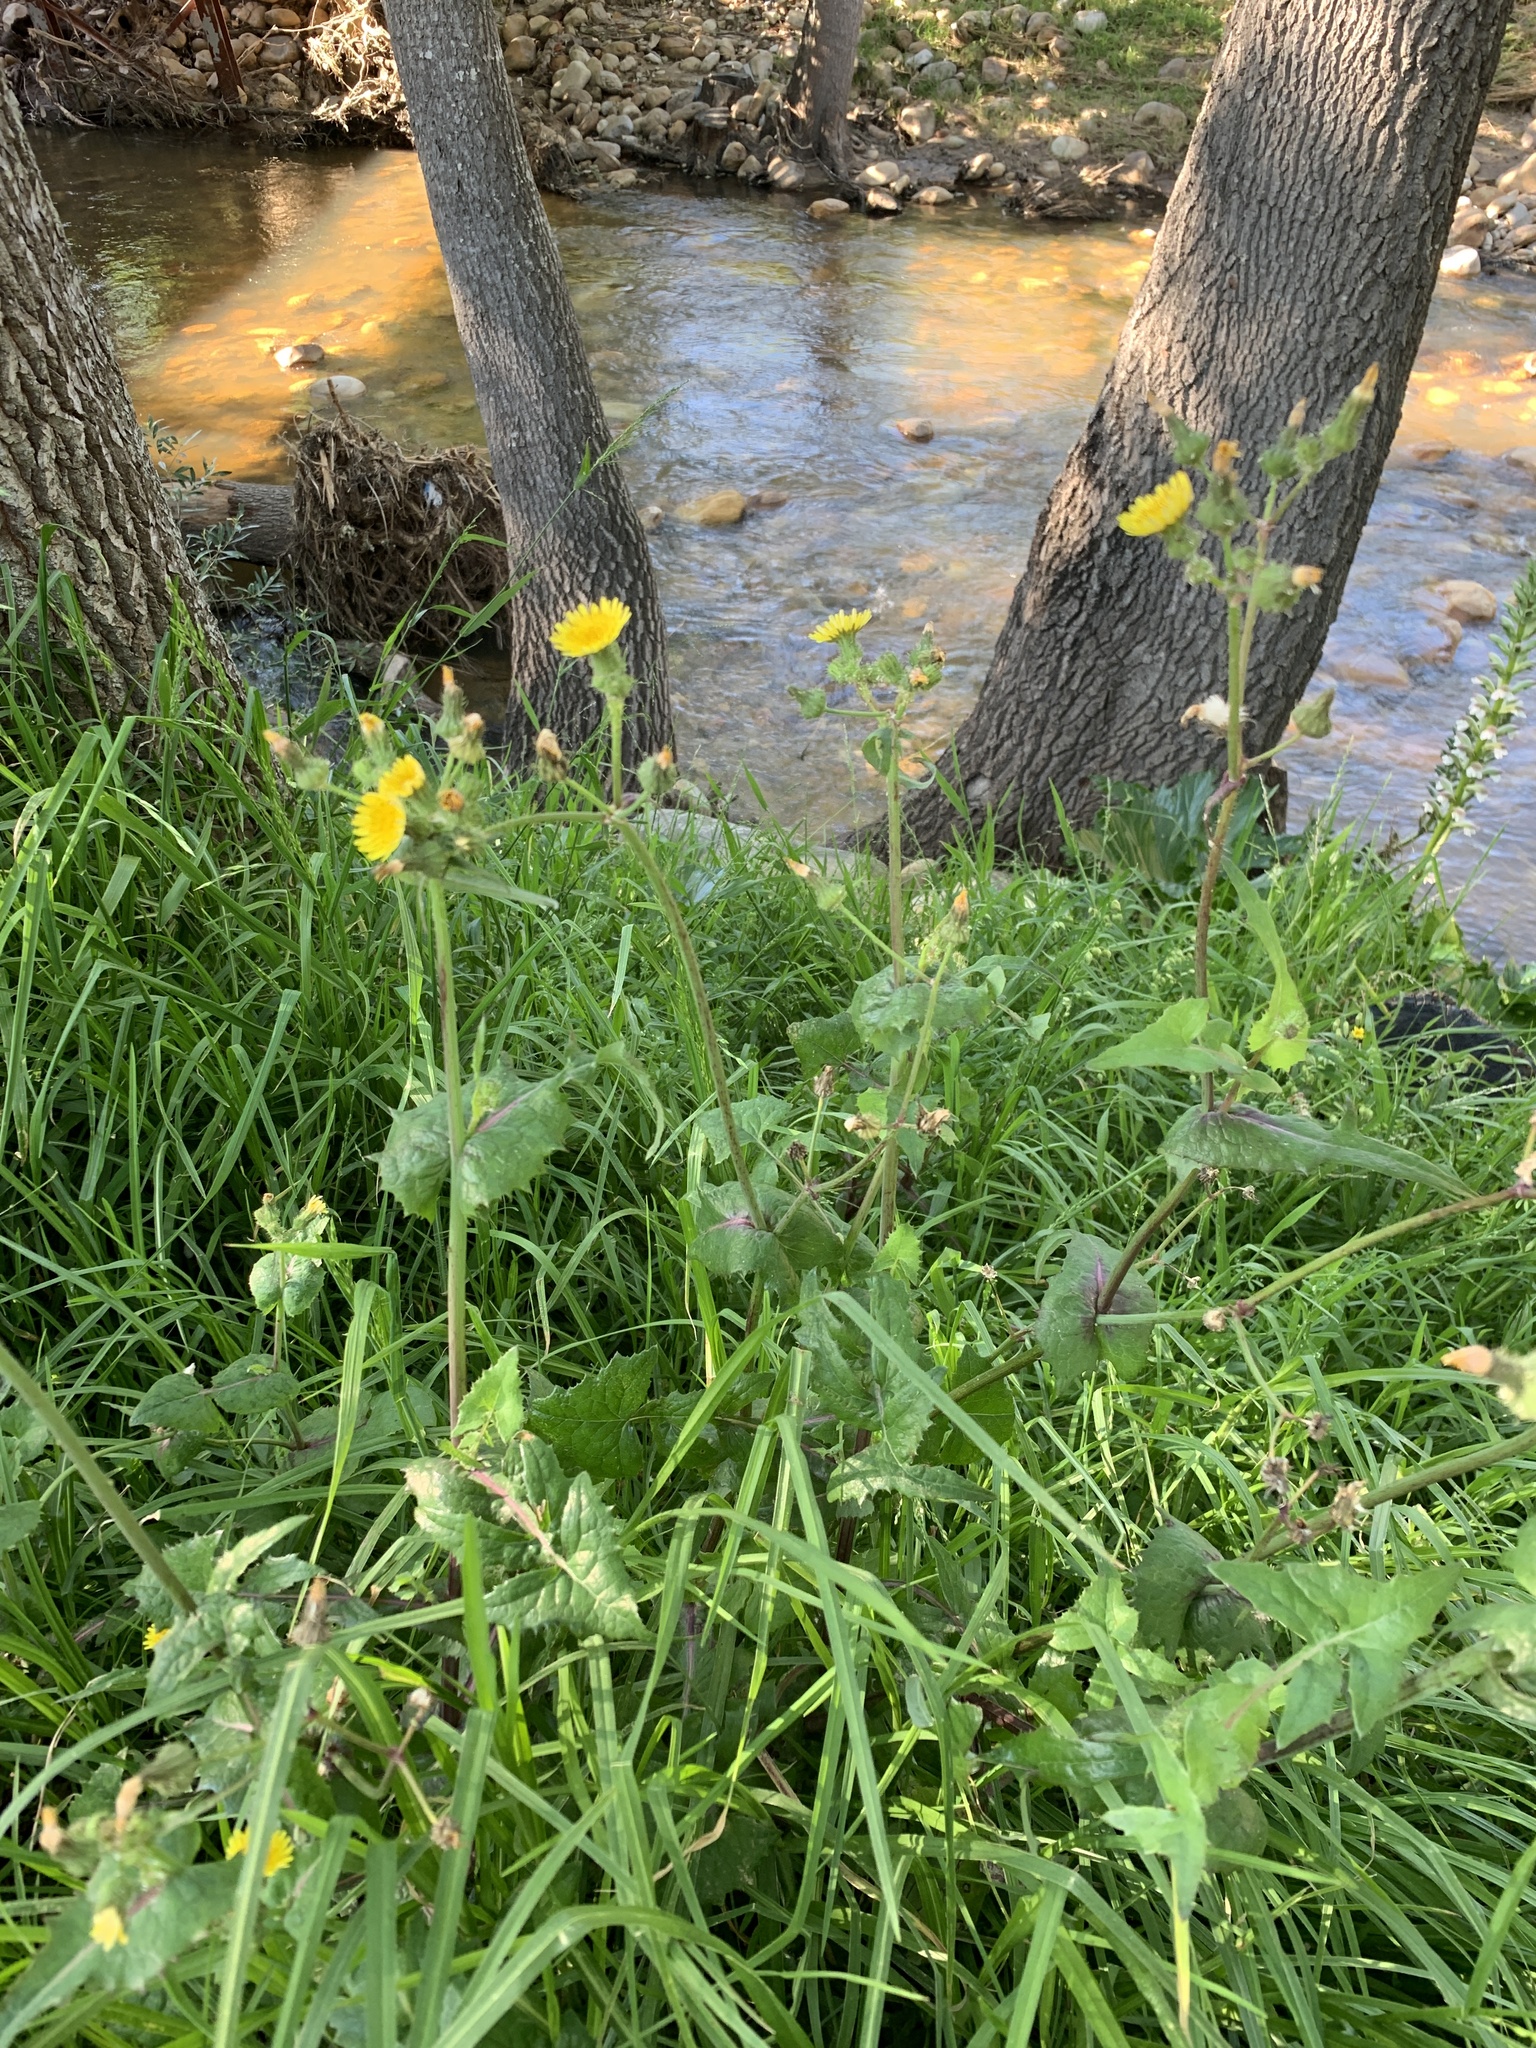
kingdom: Plantae
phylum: Tracheophyta
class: Magnoliopsida
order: Asterales
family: Asteraceae
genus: Sonchus
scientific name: Sonchus oleraceus
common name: Common sowthistle
